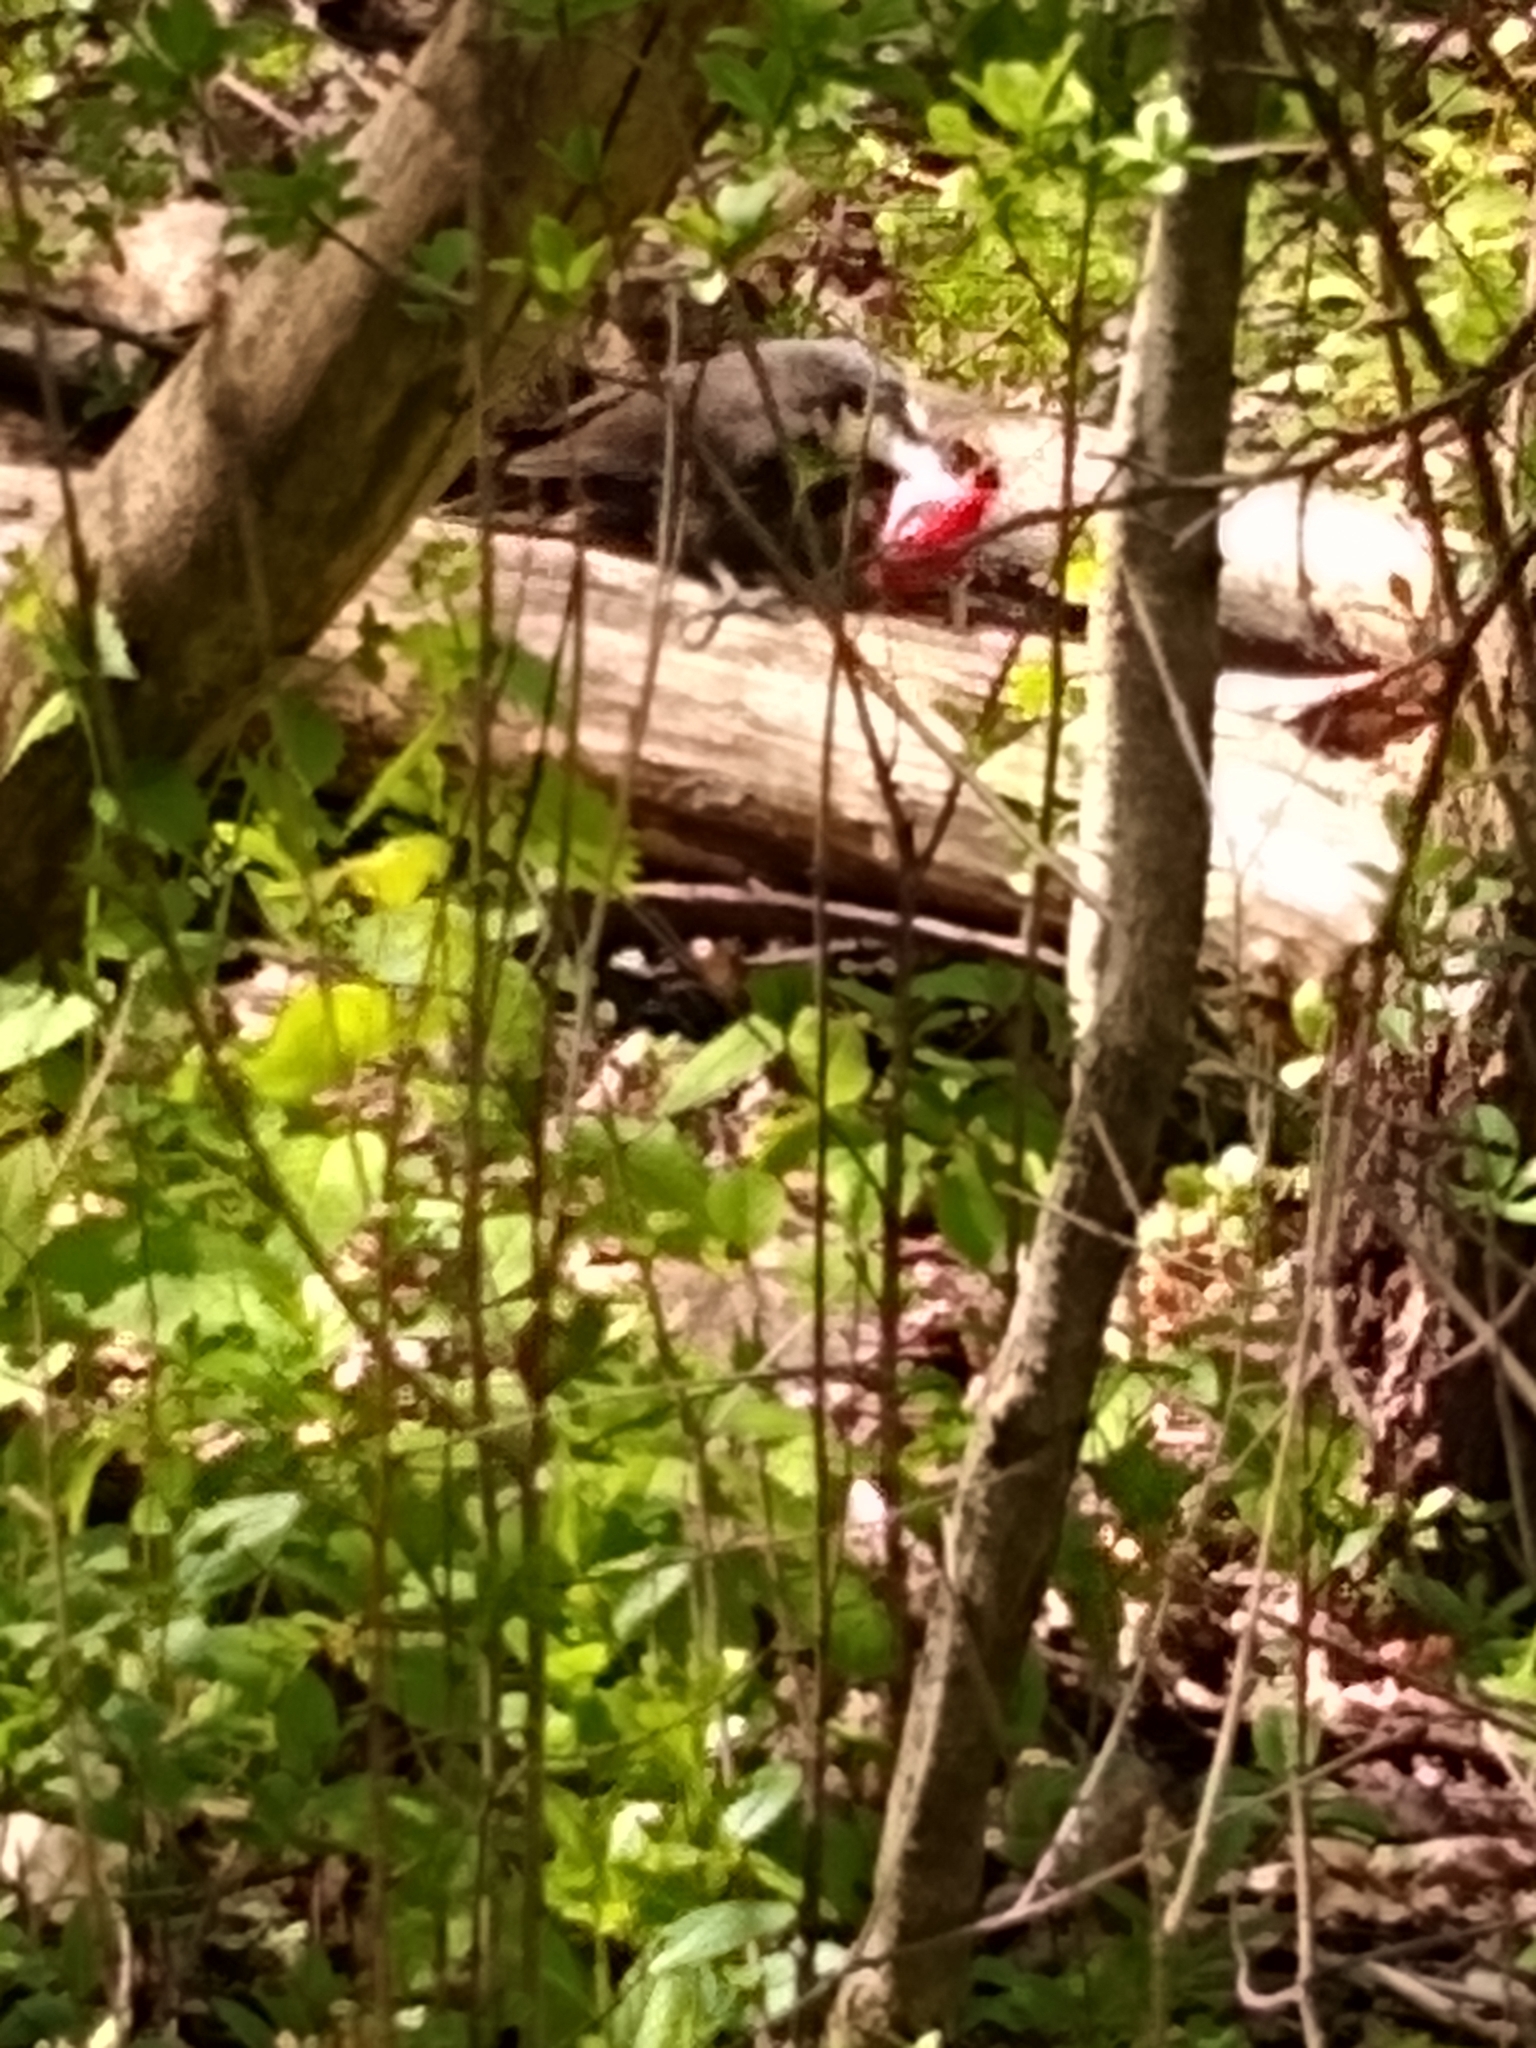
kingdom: Animalia
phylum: Chordata
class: Aves
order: Piciformes
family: Picidae
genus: Dryocopus
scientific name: Dryocopus pileatus
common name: Pileated woodpecker
